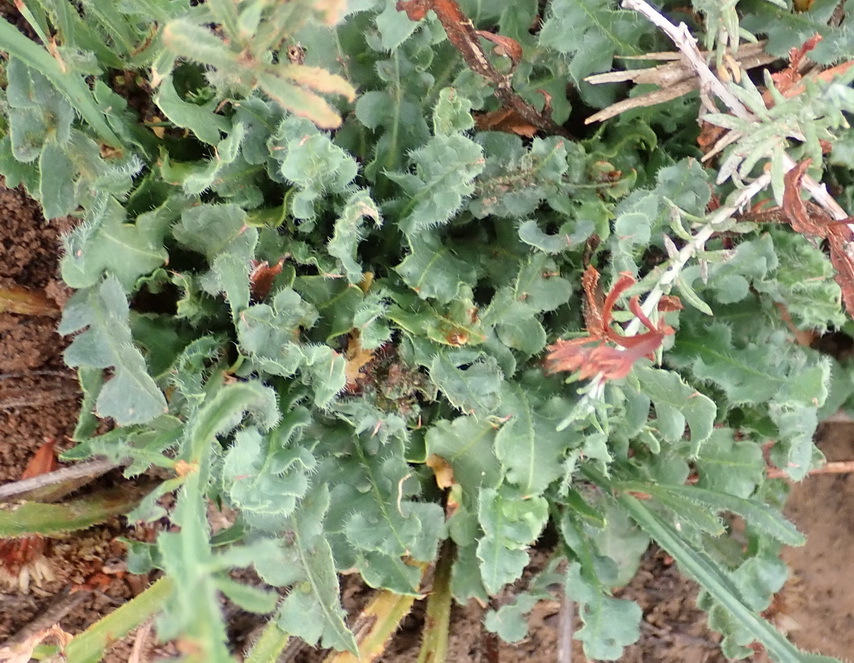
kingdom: Plantae
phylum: Tracheophyta
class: Magnoliopsida
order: Caryophyllales
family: Plumbaginaceae
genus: Limonium
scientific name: Limonium sinuatum
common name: Statice
